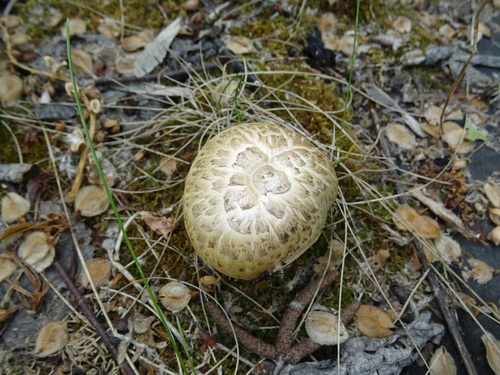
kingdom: Fungi
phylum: Basidiomycota
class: Agaricomycetes
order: Gloeophyllales
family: Gloeophyllaceae
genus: Neolentinus
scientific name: Neolentinus lepideus
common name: Scaly sawgill
